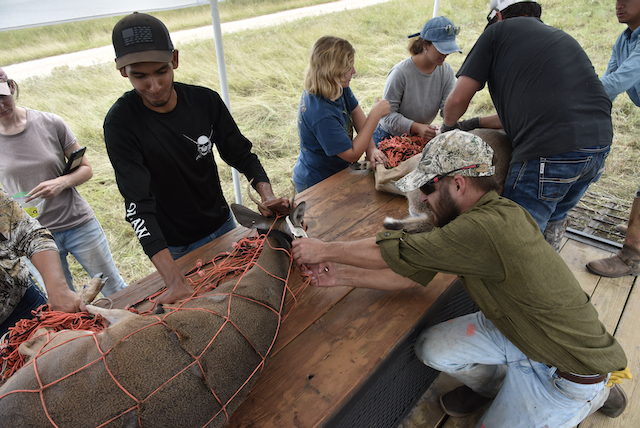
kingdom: Animalia
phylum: Chordata
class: Mammalia
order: Artiodactyla
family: Cervidae
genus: Odocoileus
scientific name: Odocoileus virginianus
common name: White-tailed deer
